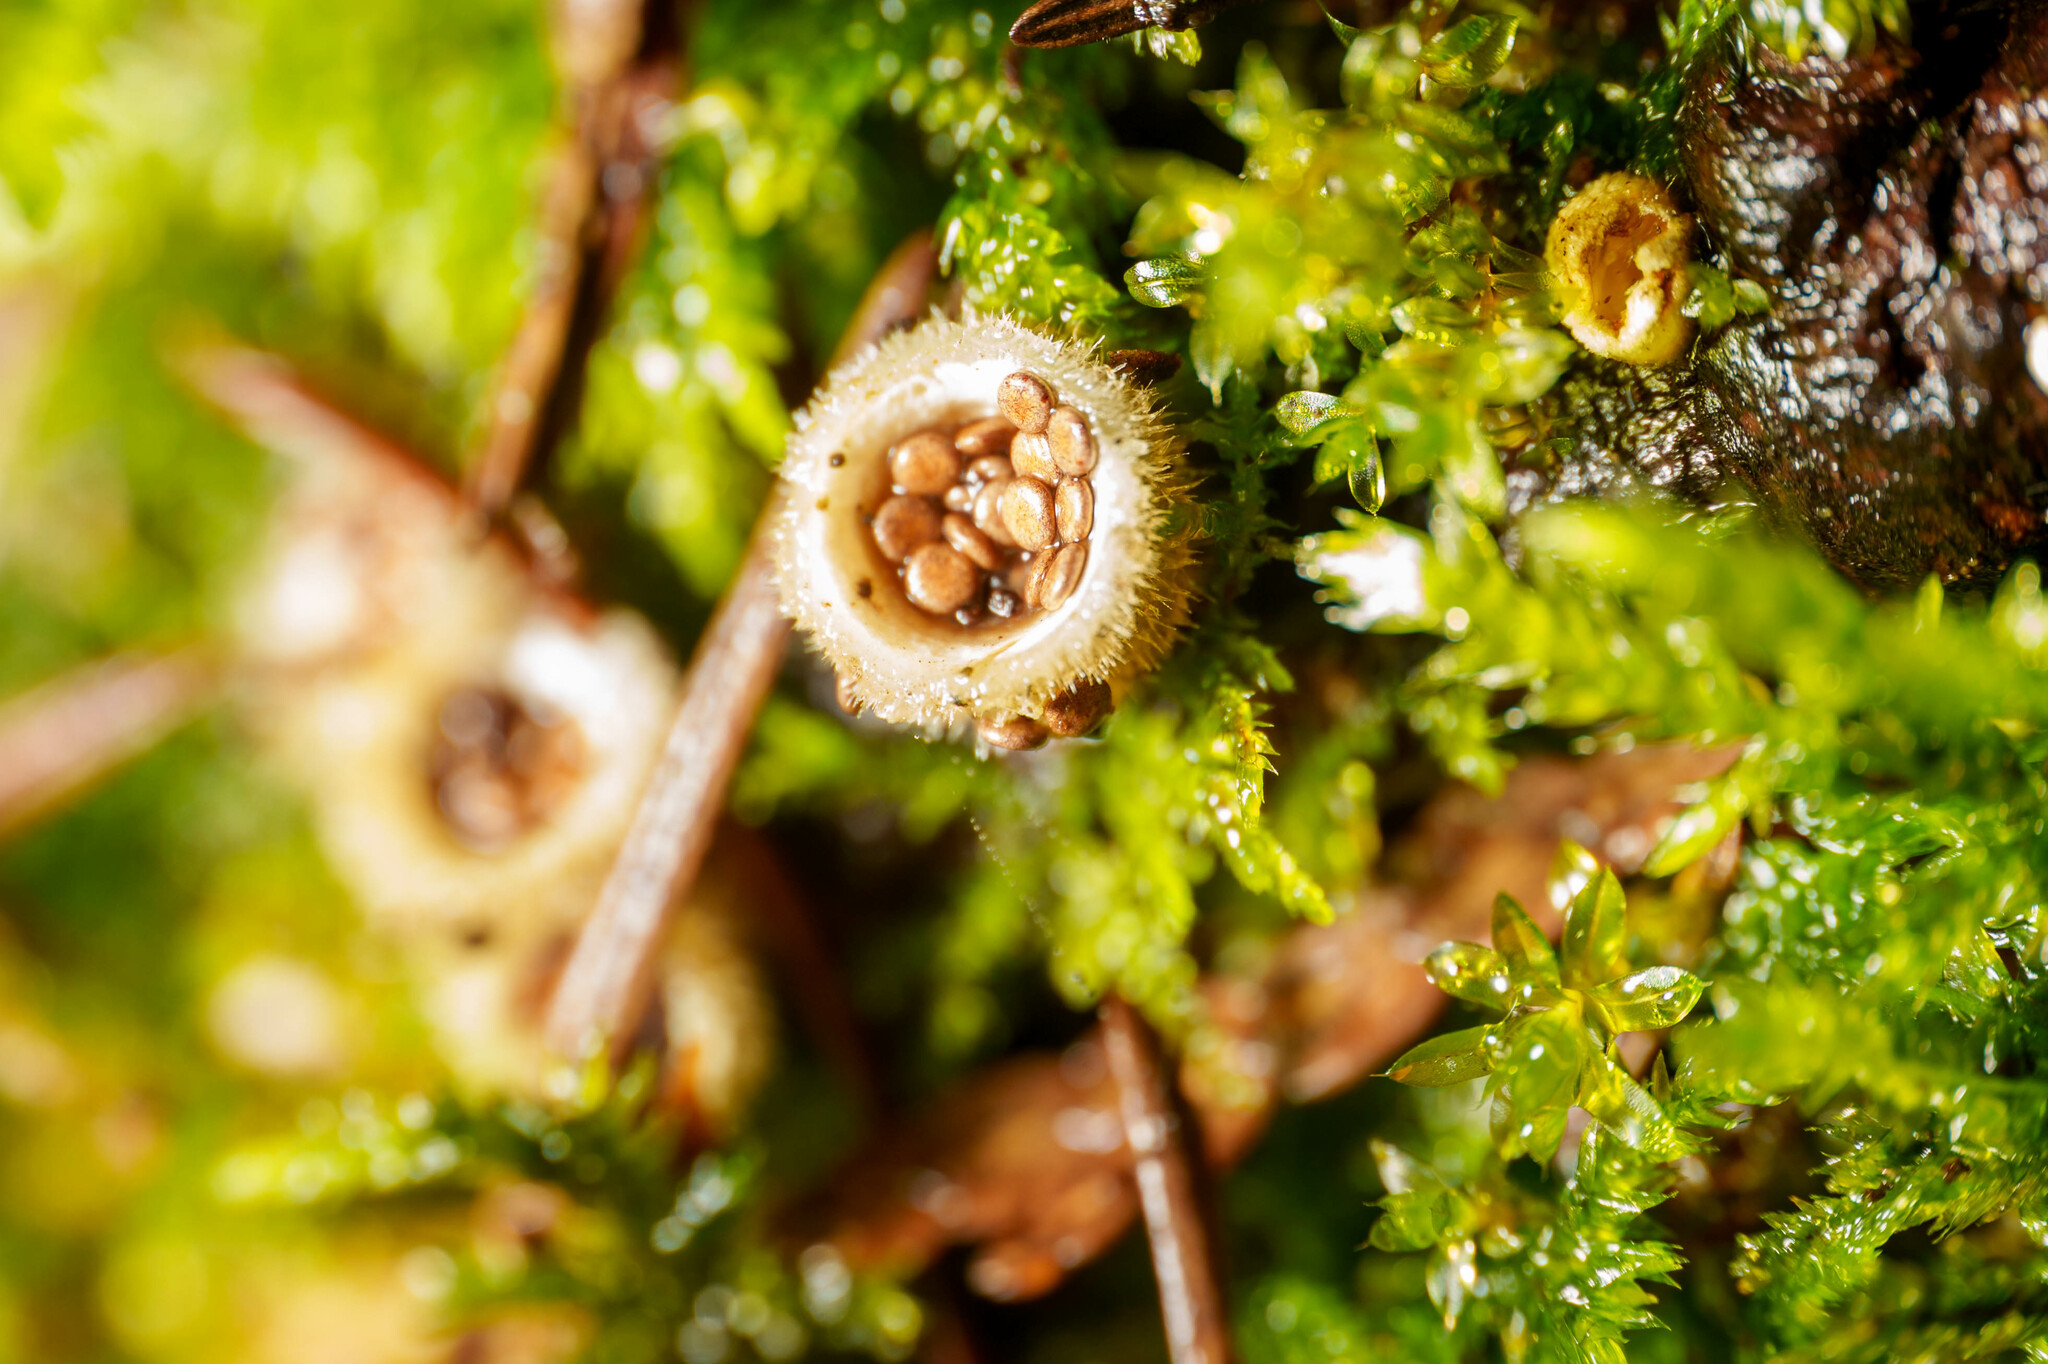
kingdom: Fungi
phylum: Basidiomycota
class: Agaricomycetes
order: Agaricales
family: Agaricaceae
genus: Nidula
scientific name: Nidula niveotomentosa
